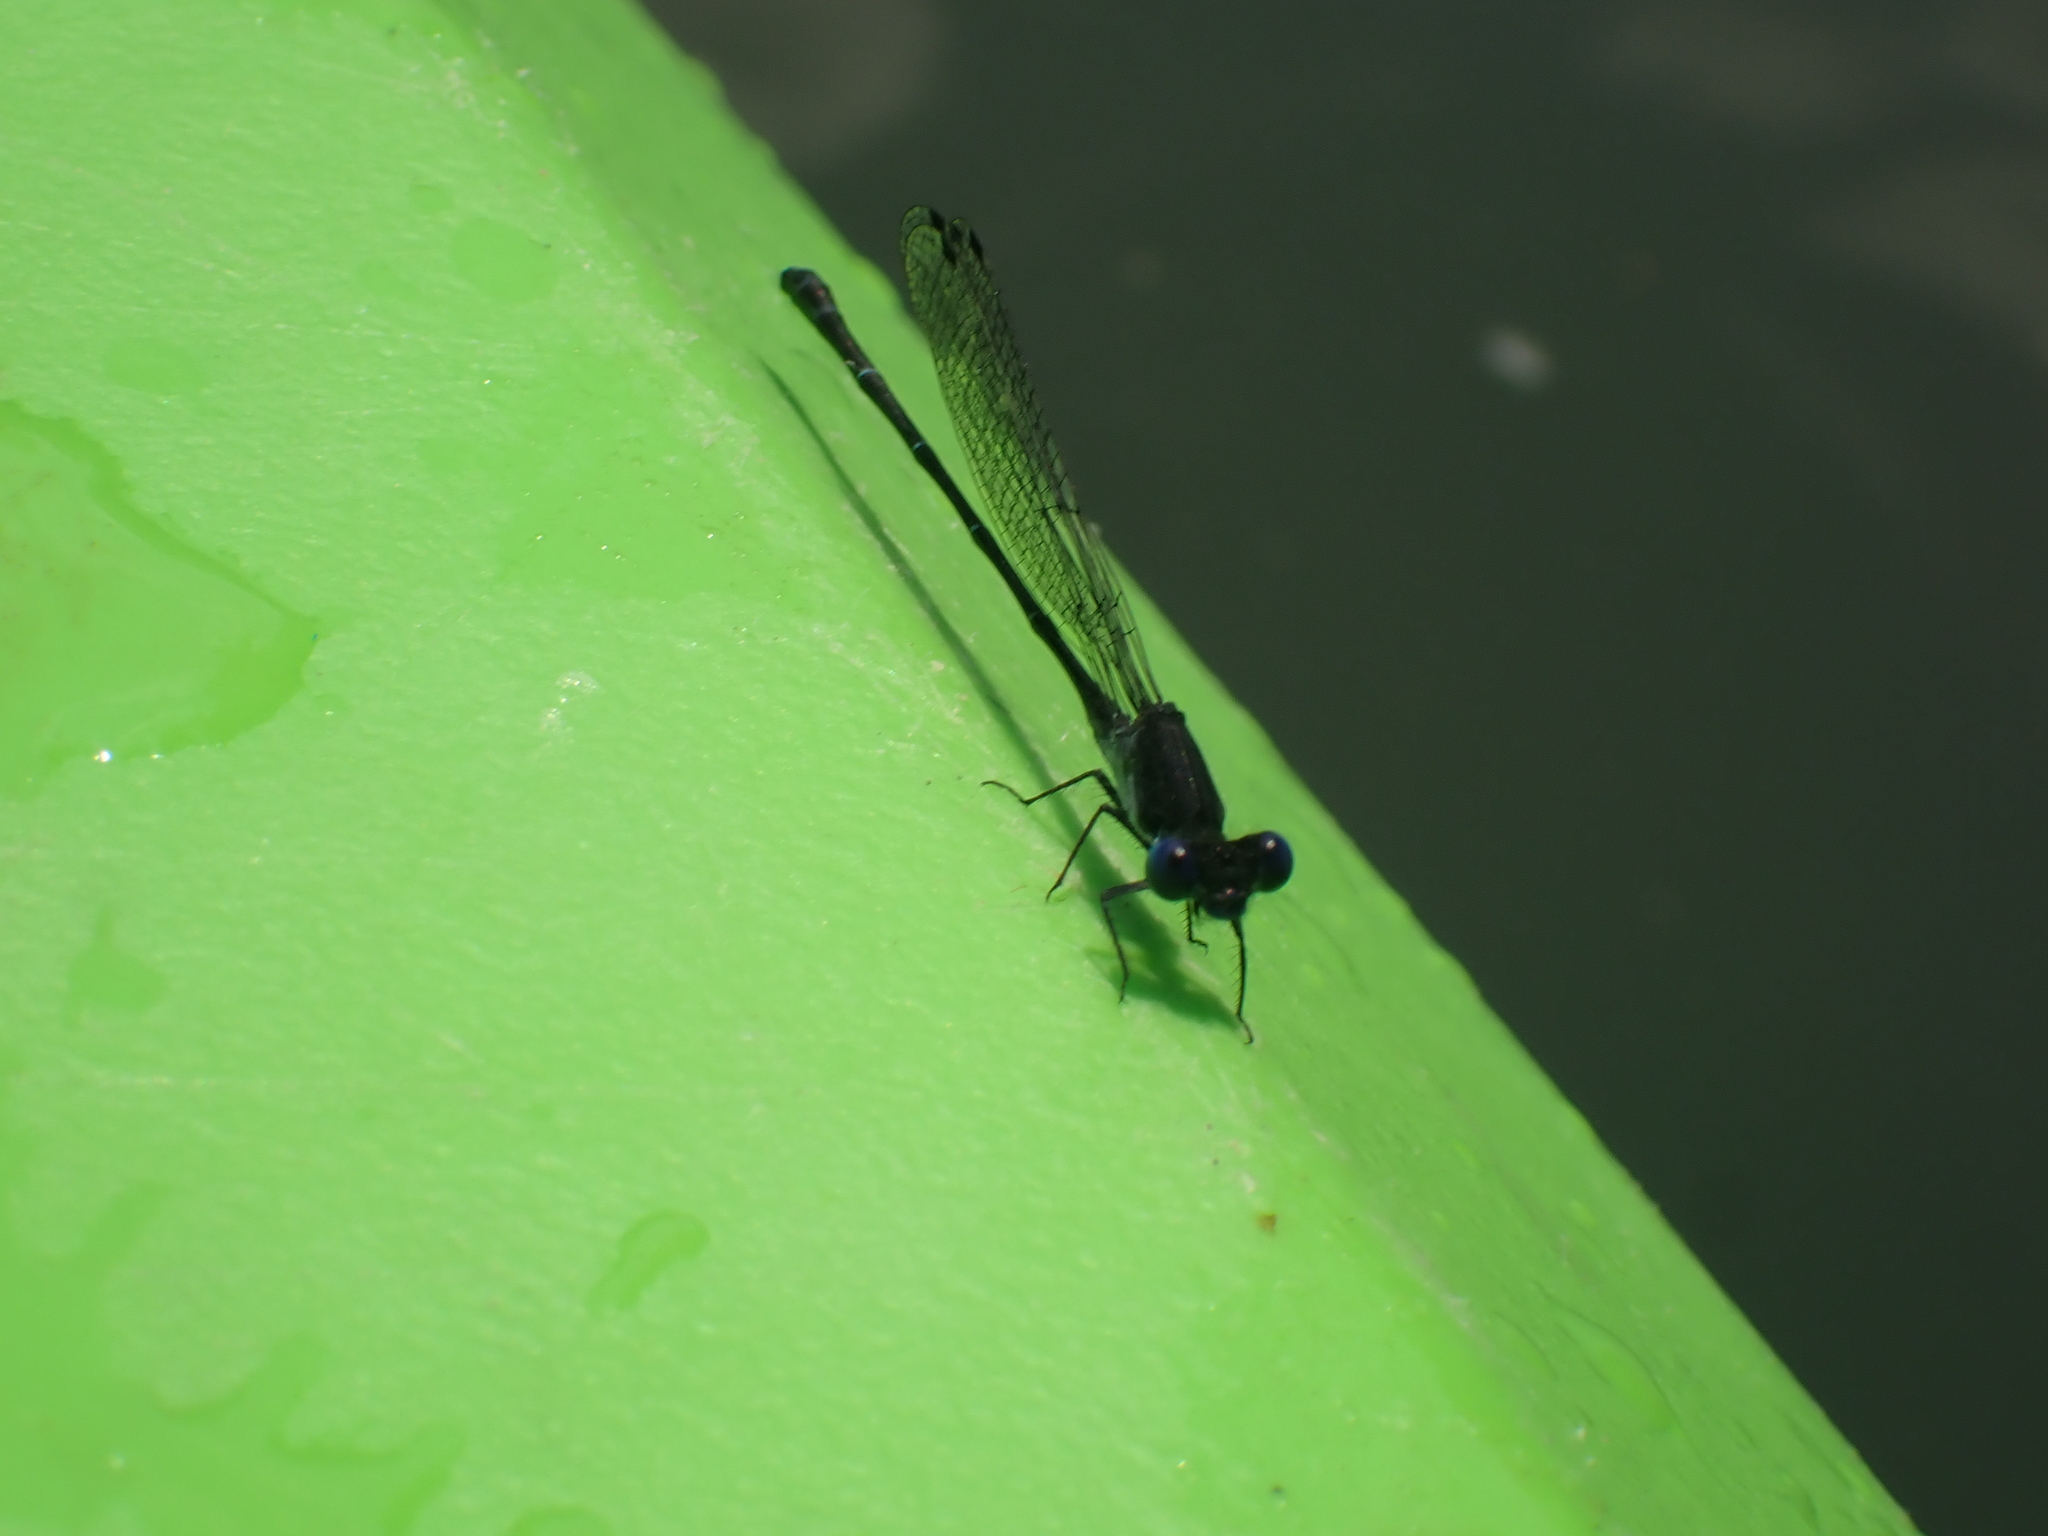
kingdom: Animalia
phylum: Arthropoda
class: Insecta
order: Odonata
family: Coenagrionidae
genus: Argia
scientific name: Argia translata
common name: Dusky dancer
